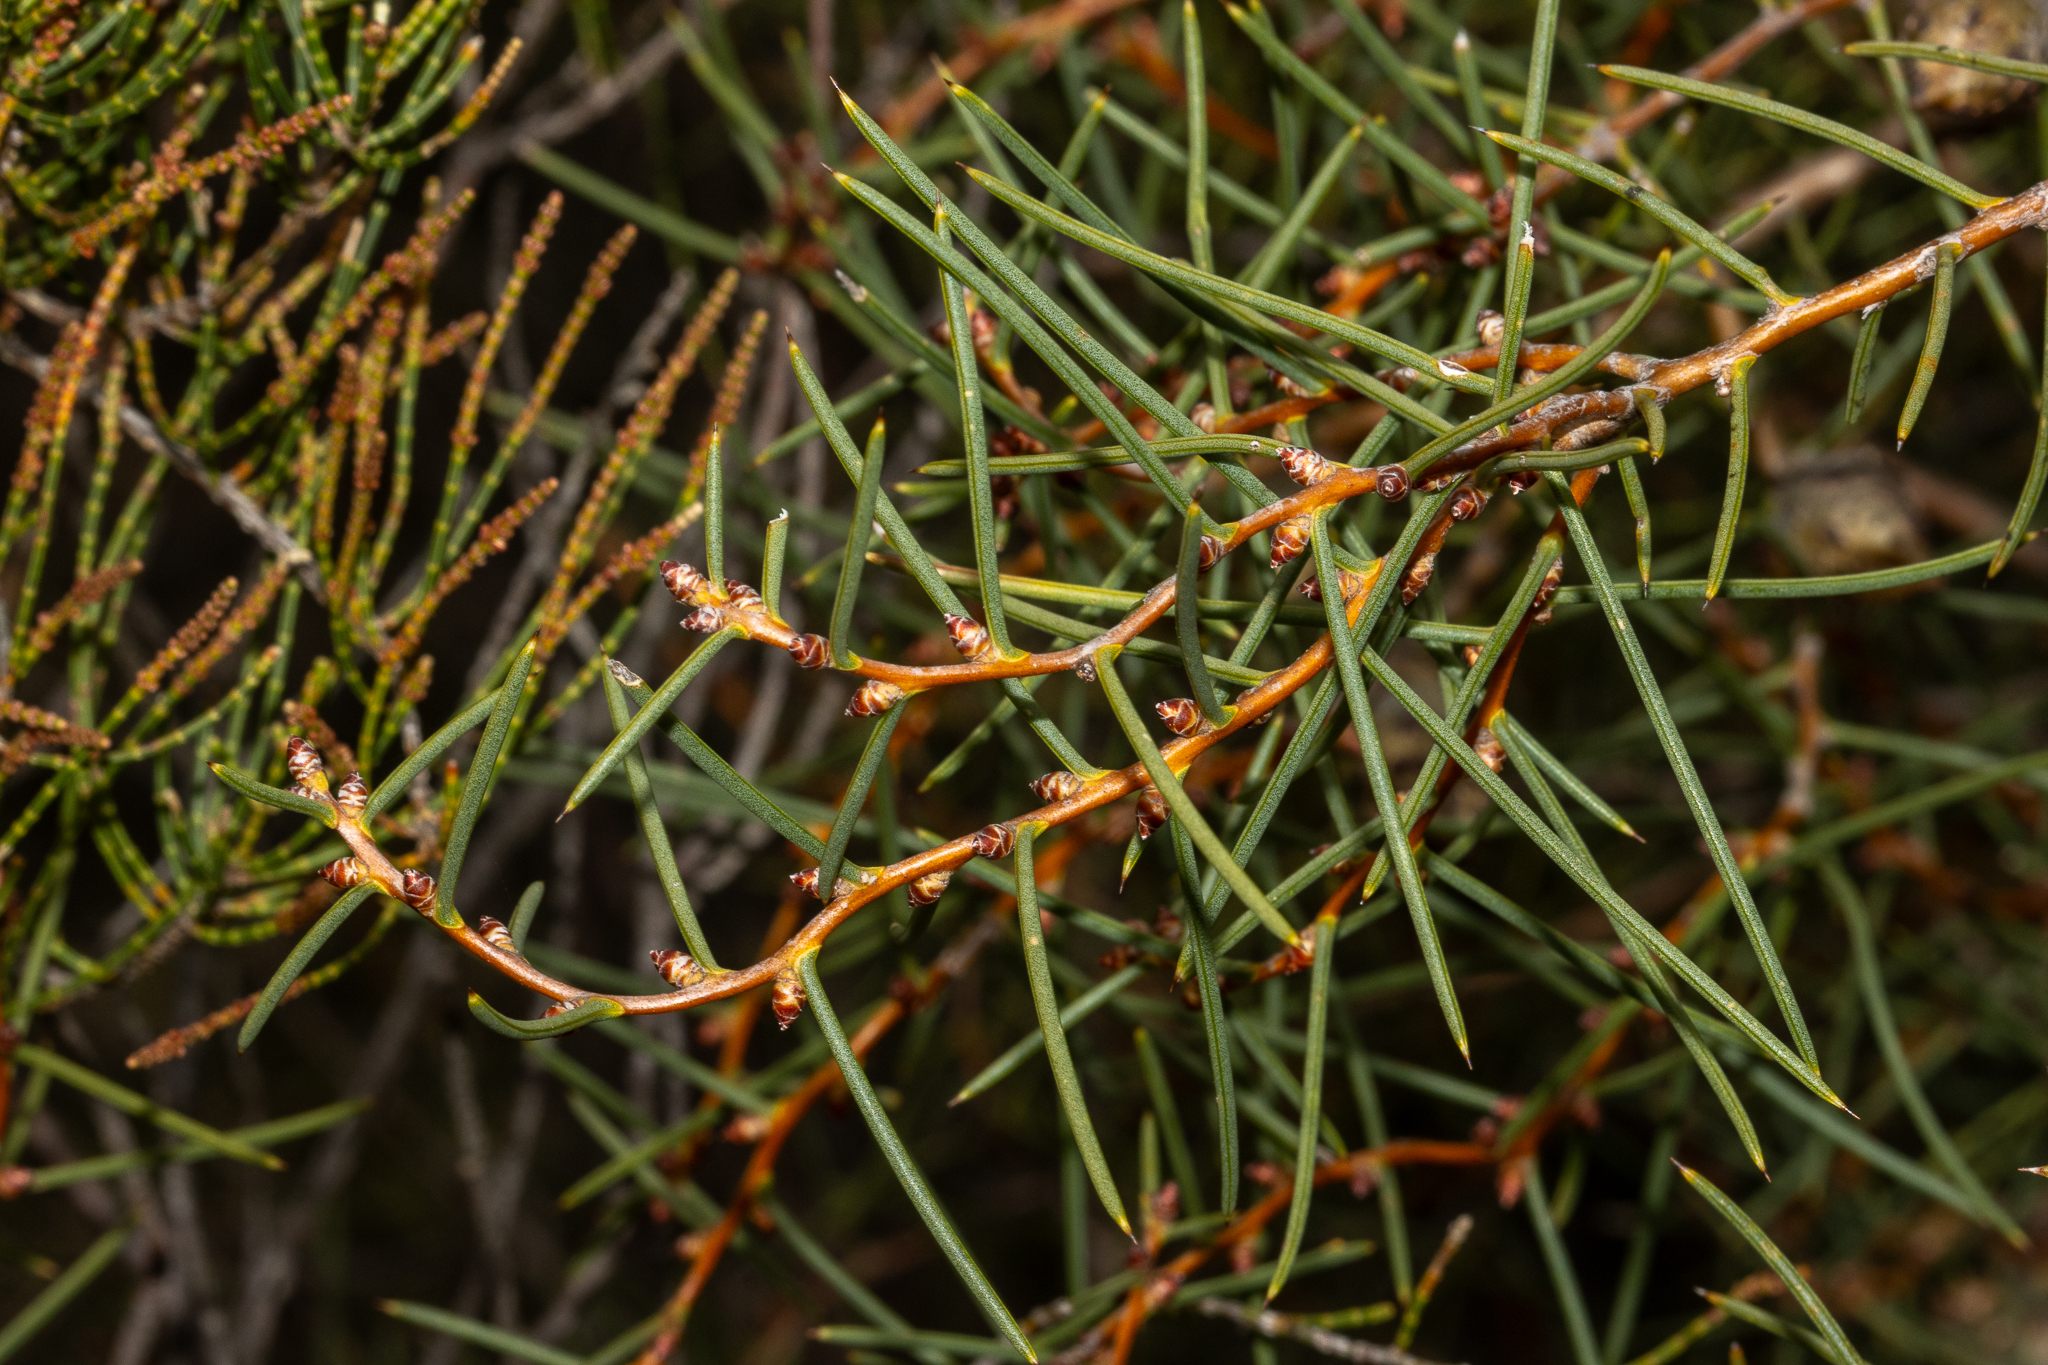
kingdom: Plantae
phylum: Tracheophyta
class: Magnoliopsida
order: Proteales
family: Proteaceae
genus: Hakea
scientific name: Hakea mitchellii
